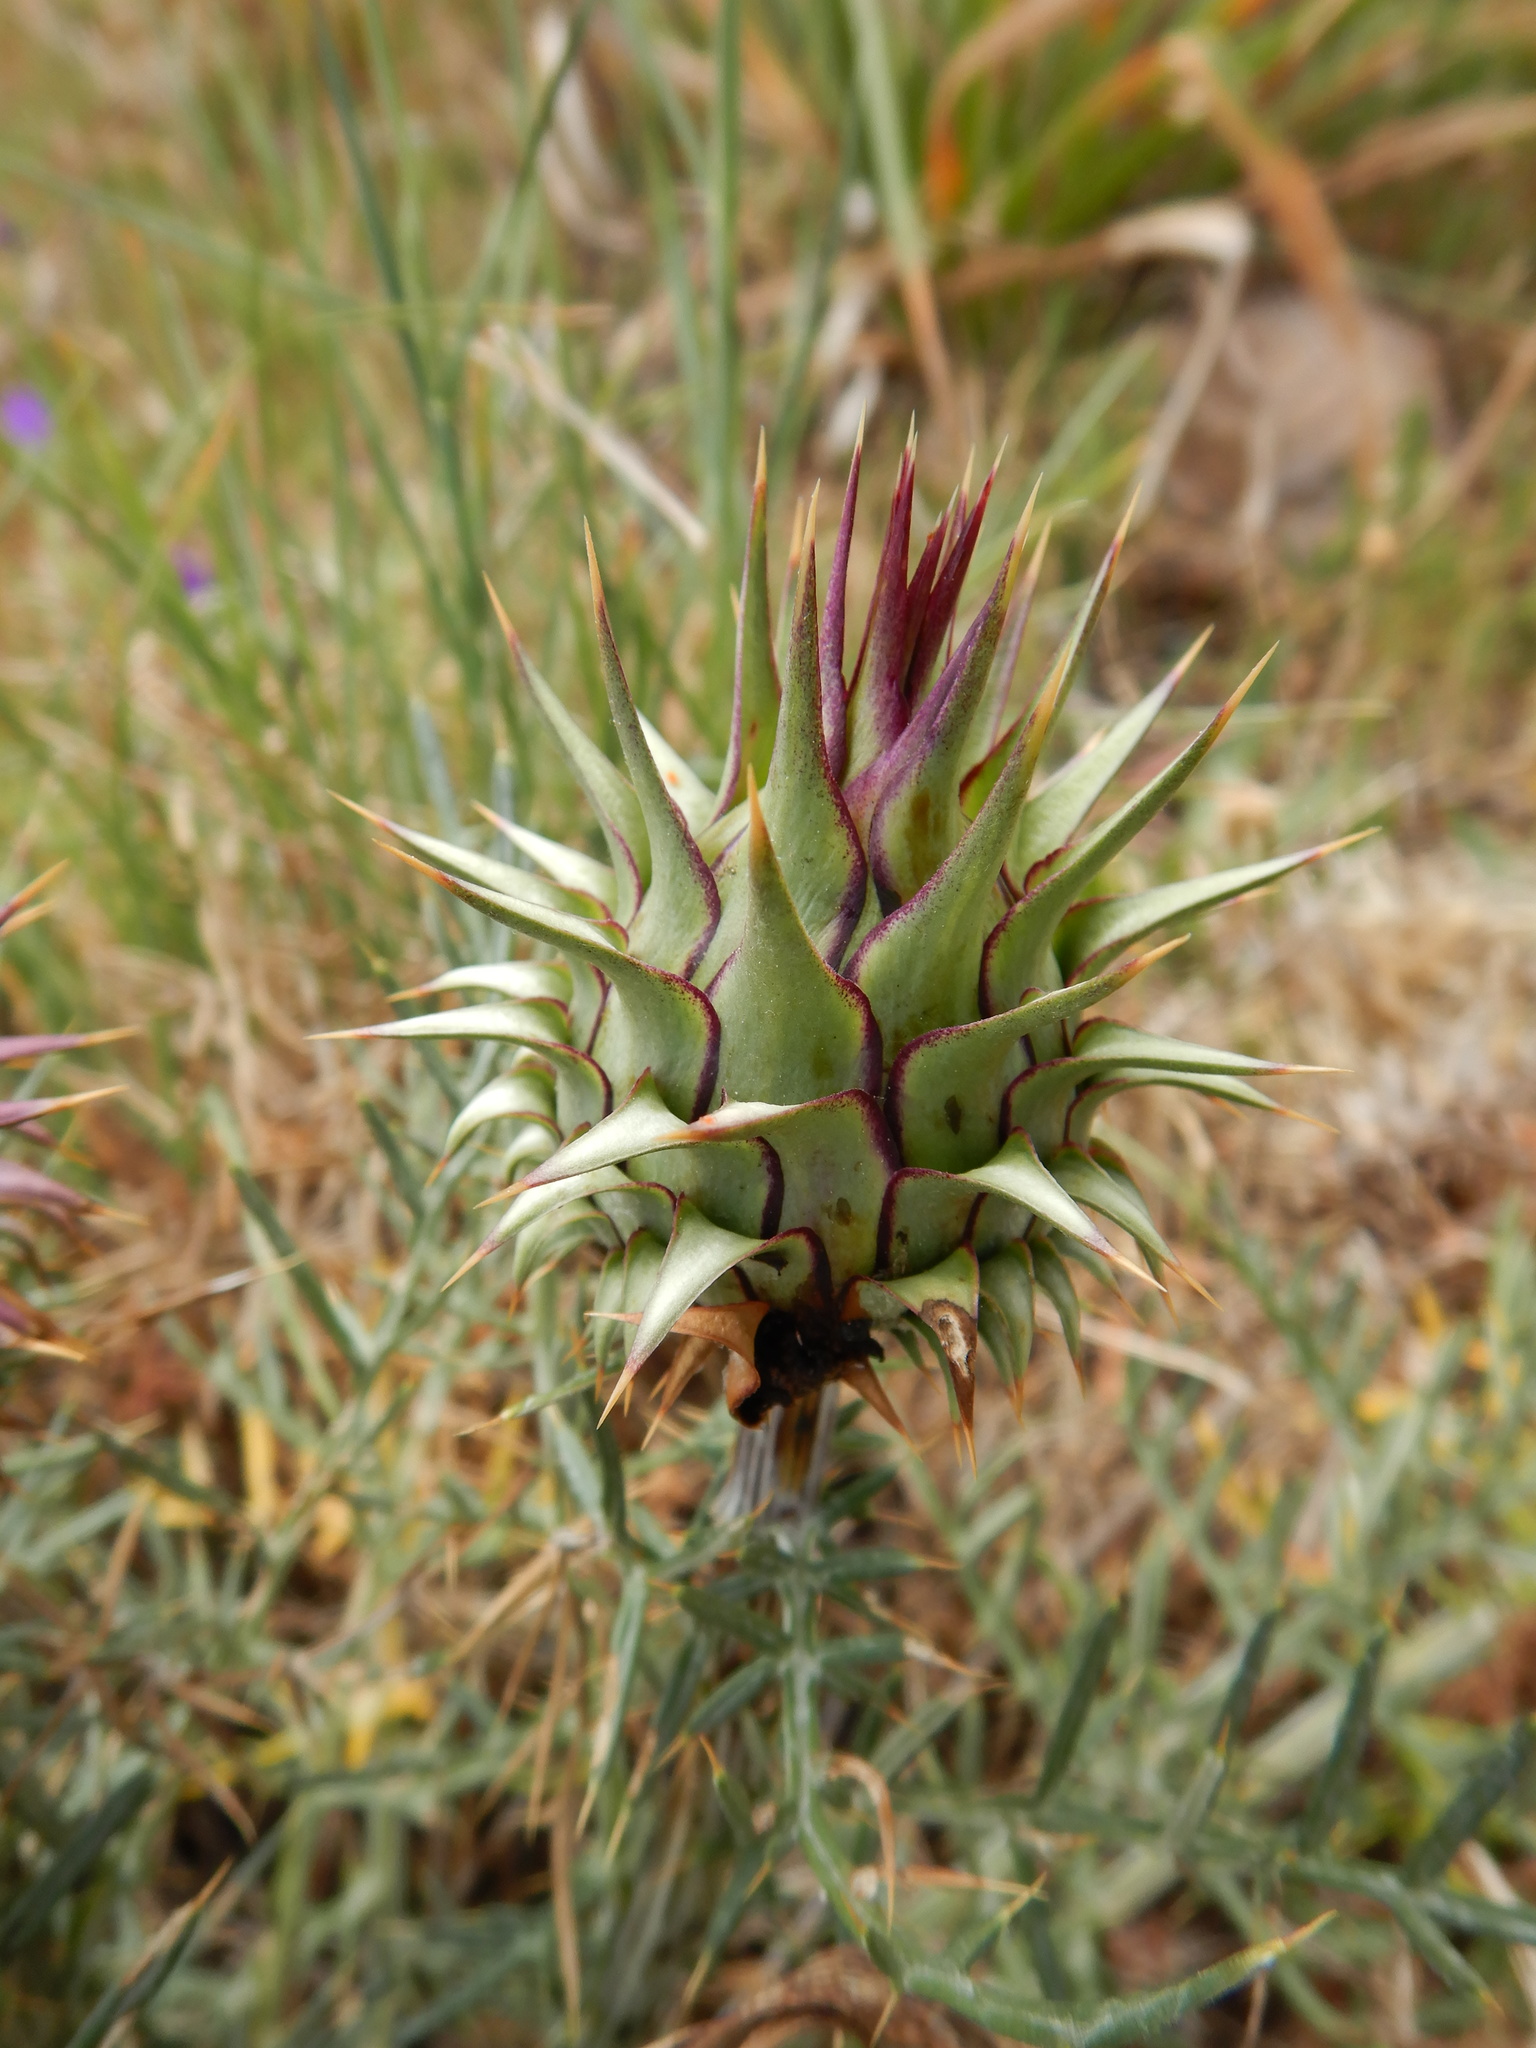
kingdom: Plantae
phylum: Tracheophyta
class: Magnoliopsida
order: Asterales
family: Asteraceae
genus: Cynara
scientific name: Cynara humilis
